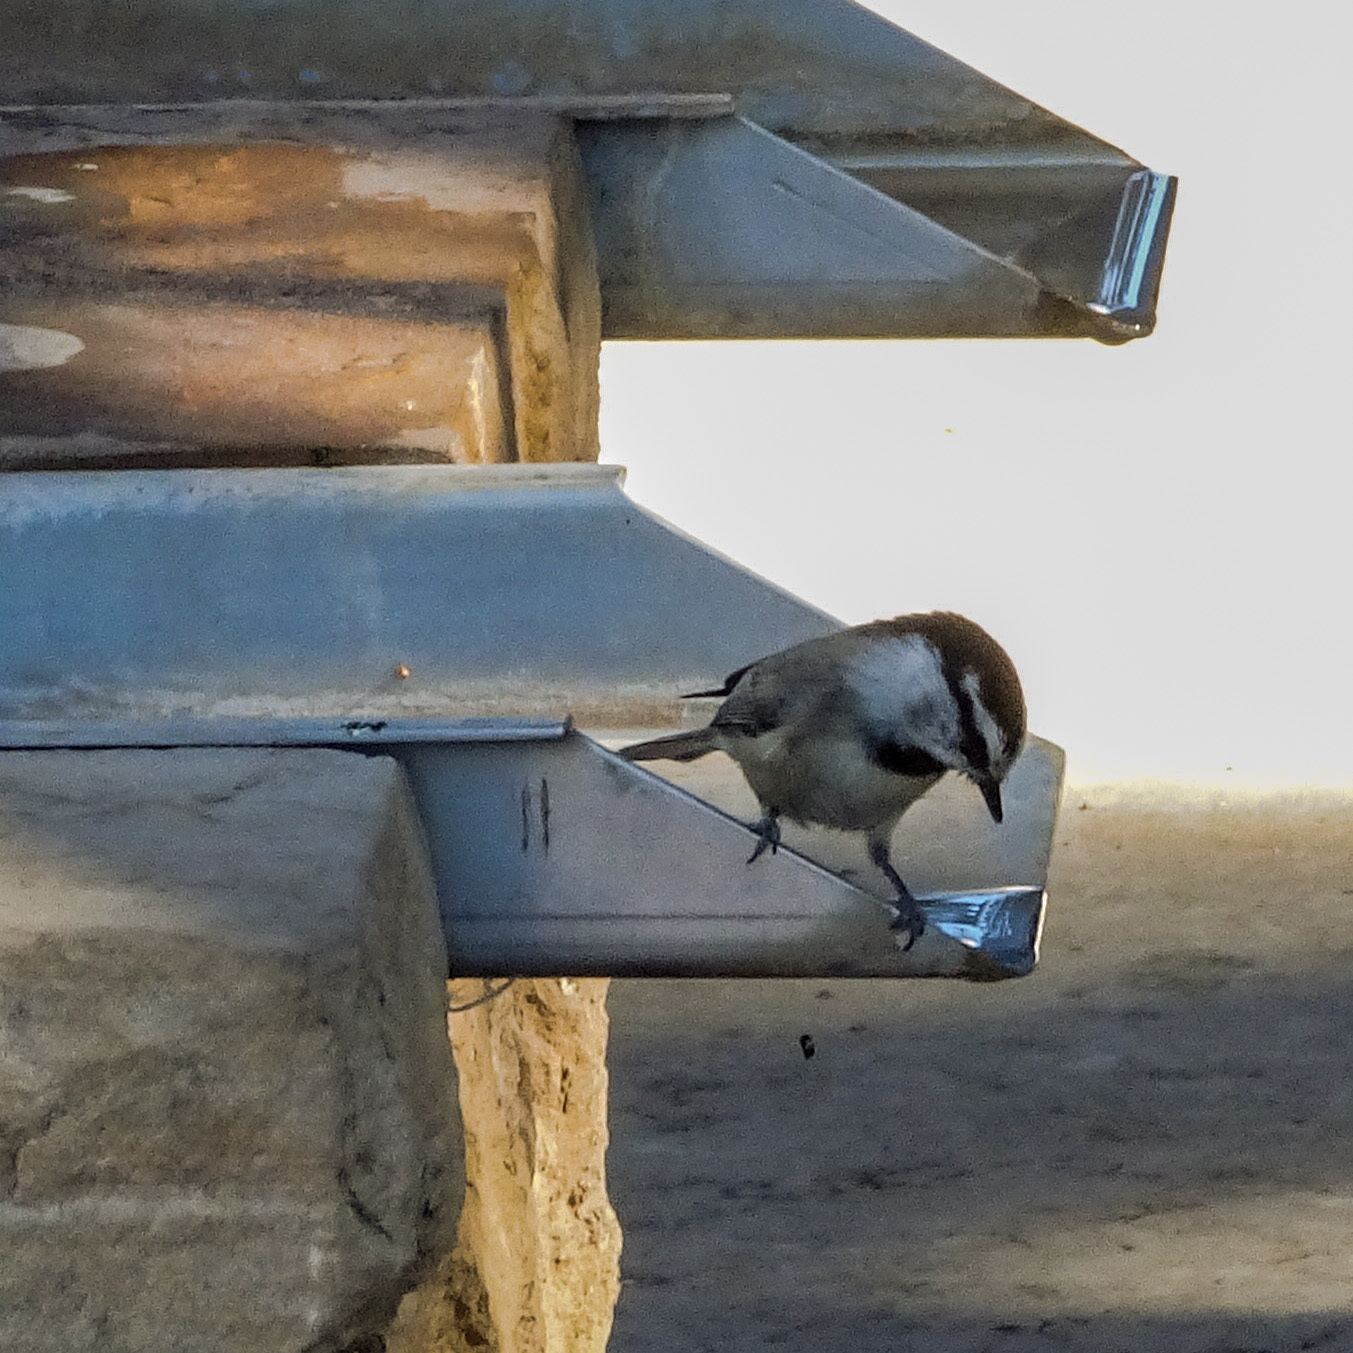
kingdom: Animalia
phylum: Chordata
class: Aves
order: Passeriformes
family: Paridae
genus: Poecile
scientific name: Poecile gambeli
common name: Mountain chickadee
